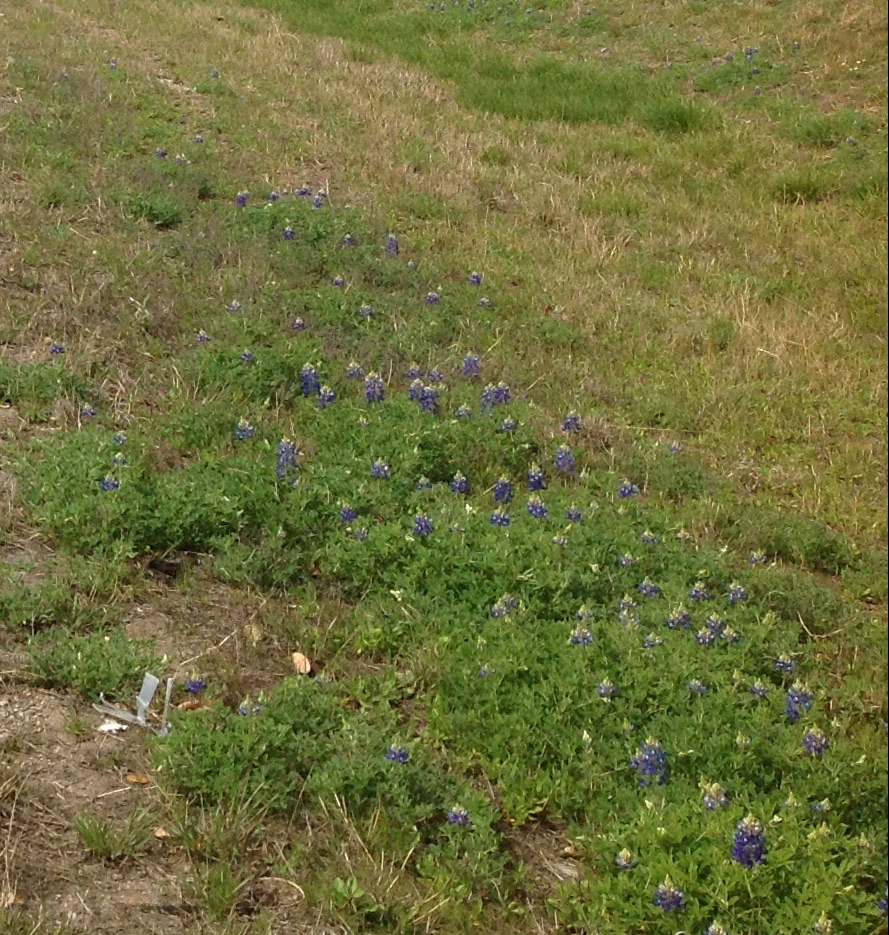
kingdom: Plantae
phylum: Tracheophyta
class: Magnoliopsida
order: Fabales
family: Fabaceae
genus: Lupinus
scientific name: Lupinus texensis
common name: Texas bluebonnet
